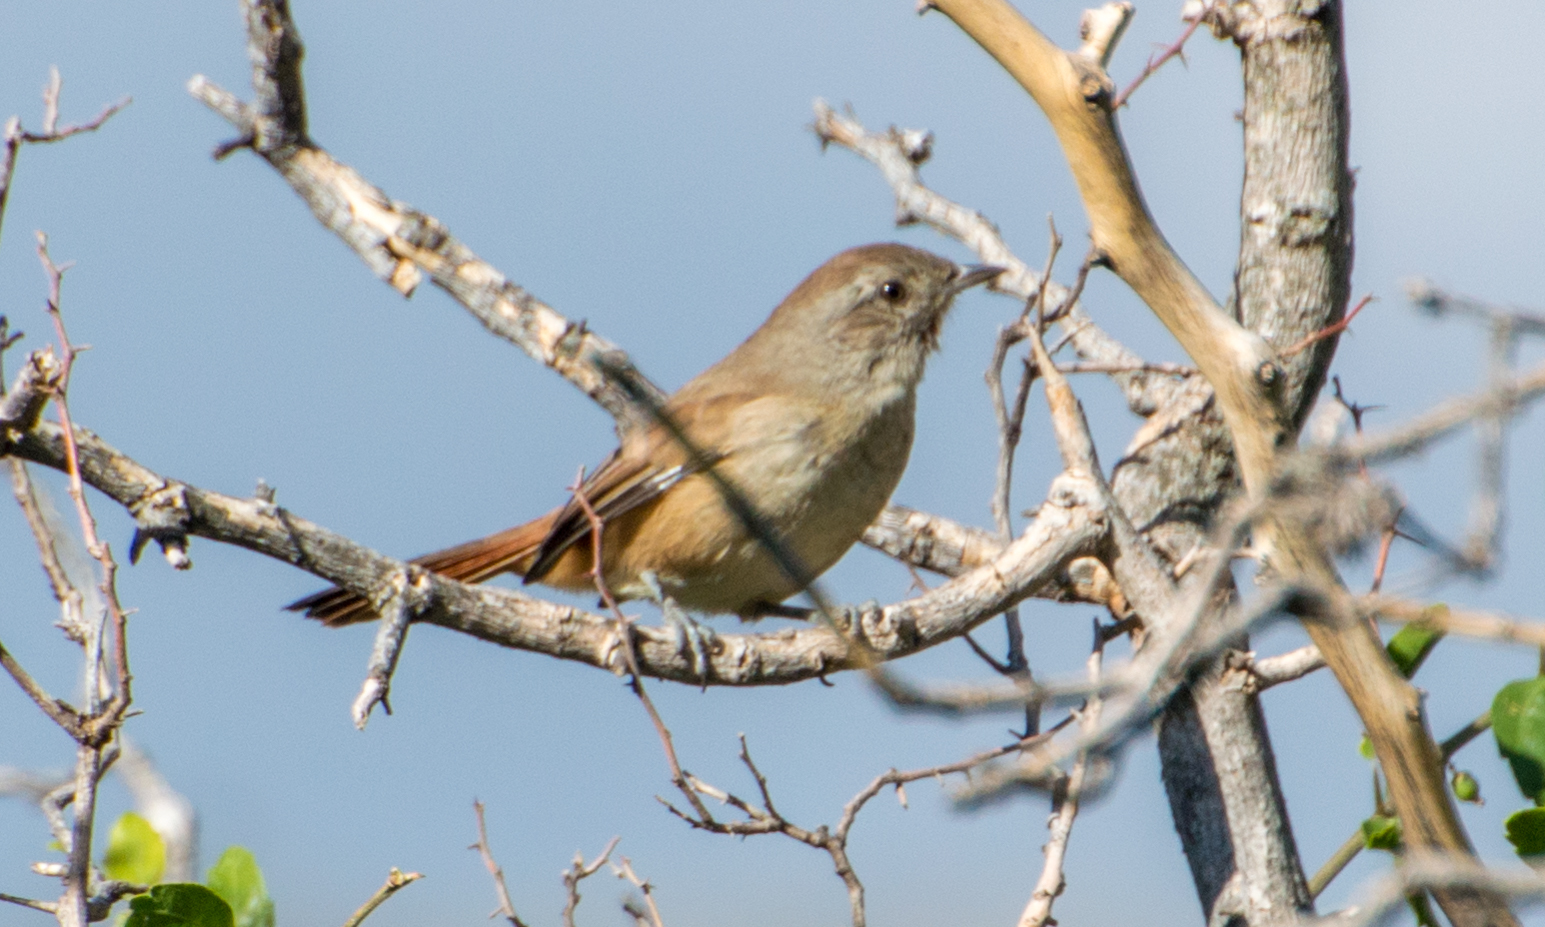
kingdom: Animalia
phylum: Chordata
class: Aves
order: Passeriformes
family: Furnariidae
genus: Asthenes
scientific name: Asthenes baeri
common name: Short-billed canastero
